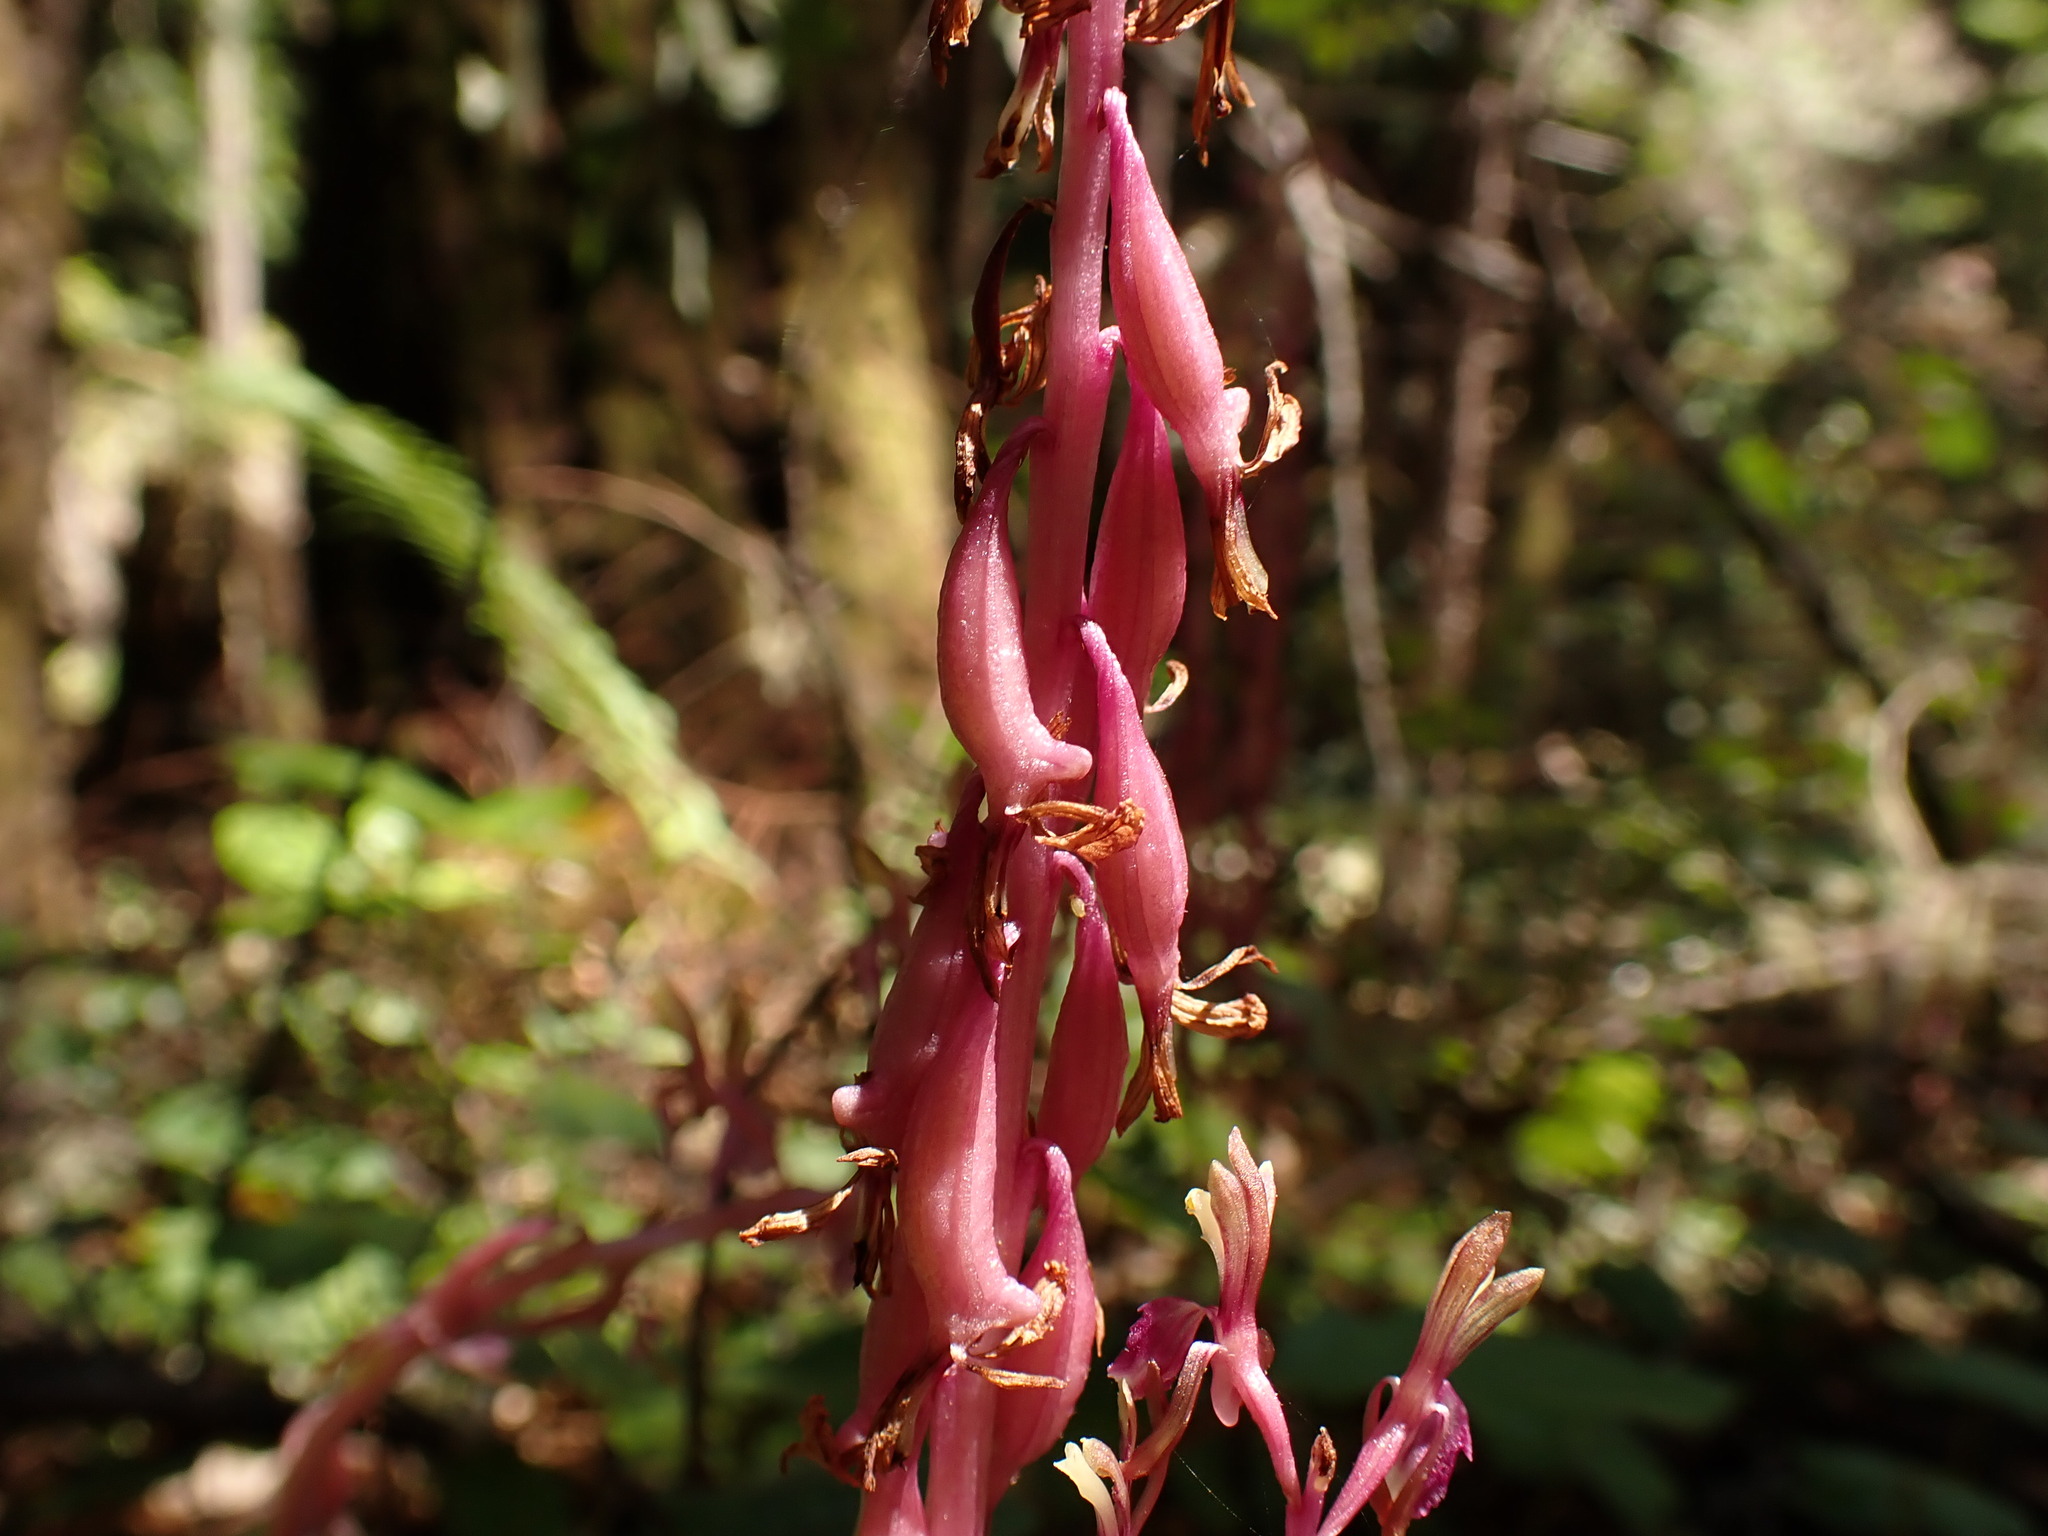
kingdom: Plantae
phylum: Tracheophyta
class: Liliopsida
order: Asparagales
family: Orchidaceae
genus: Corallorhiza
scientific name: Corallorhiza mertensiana
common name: Pacific coralroot
